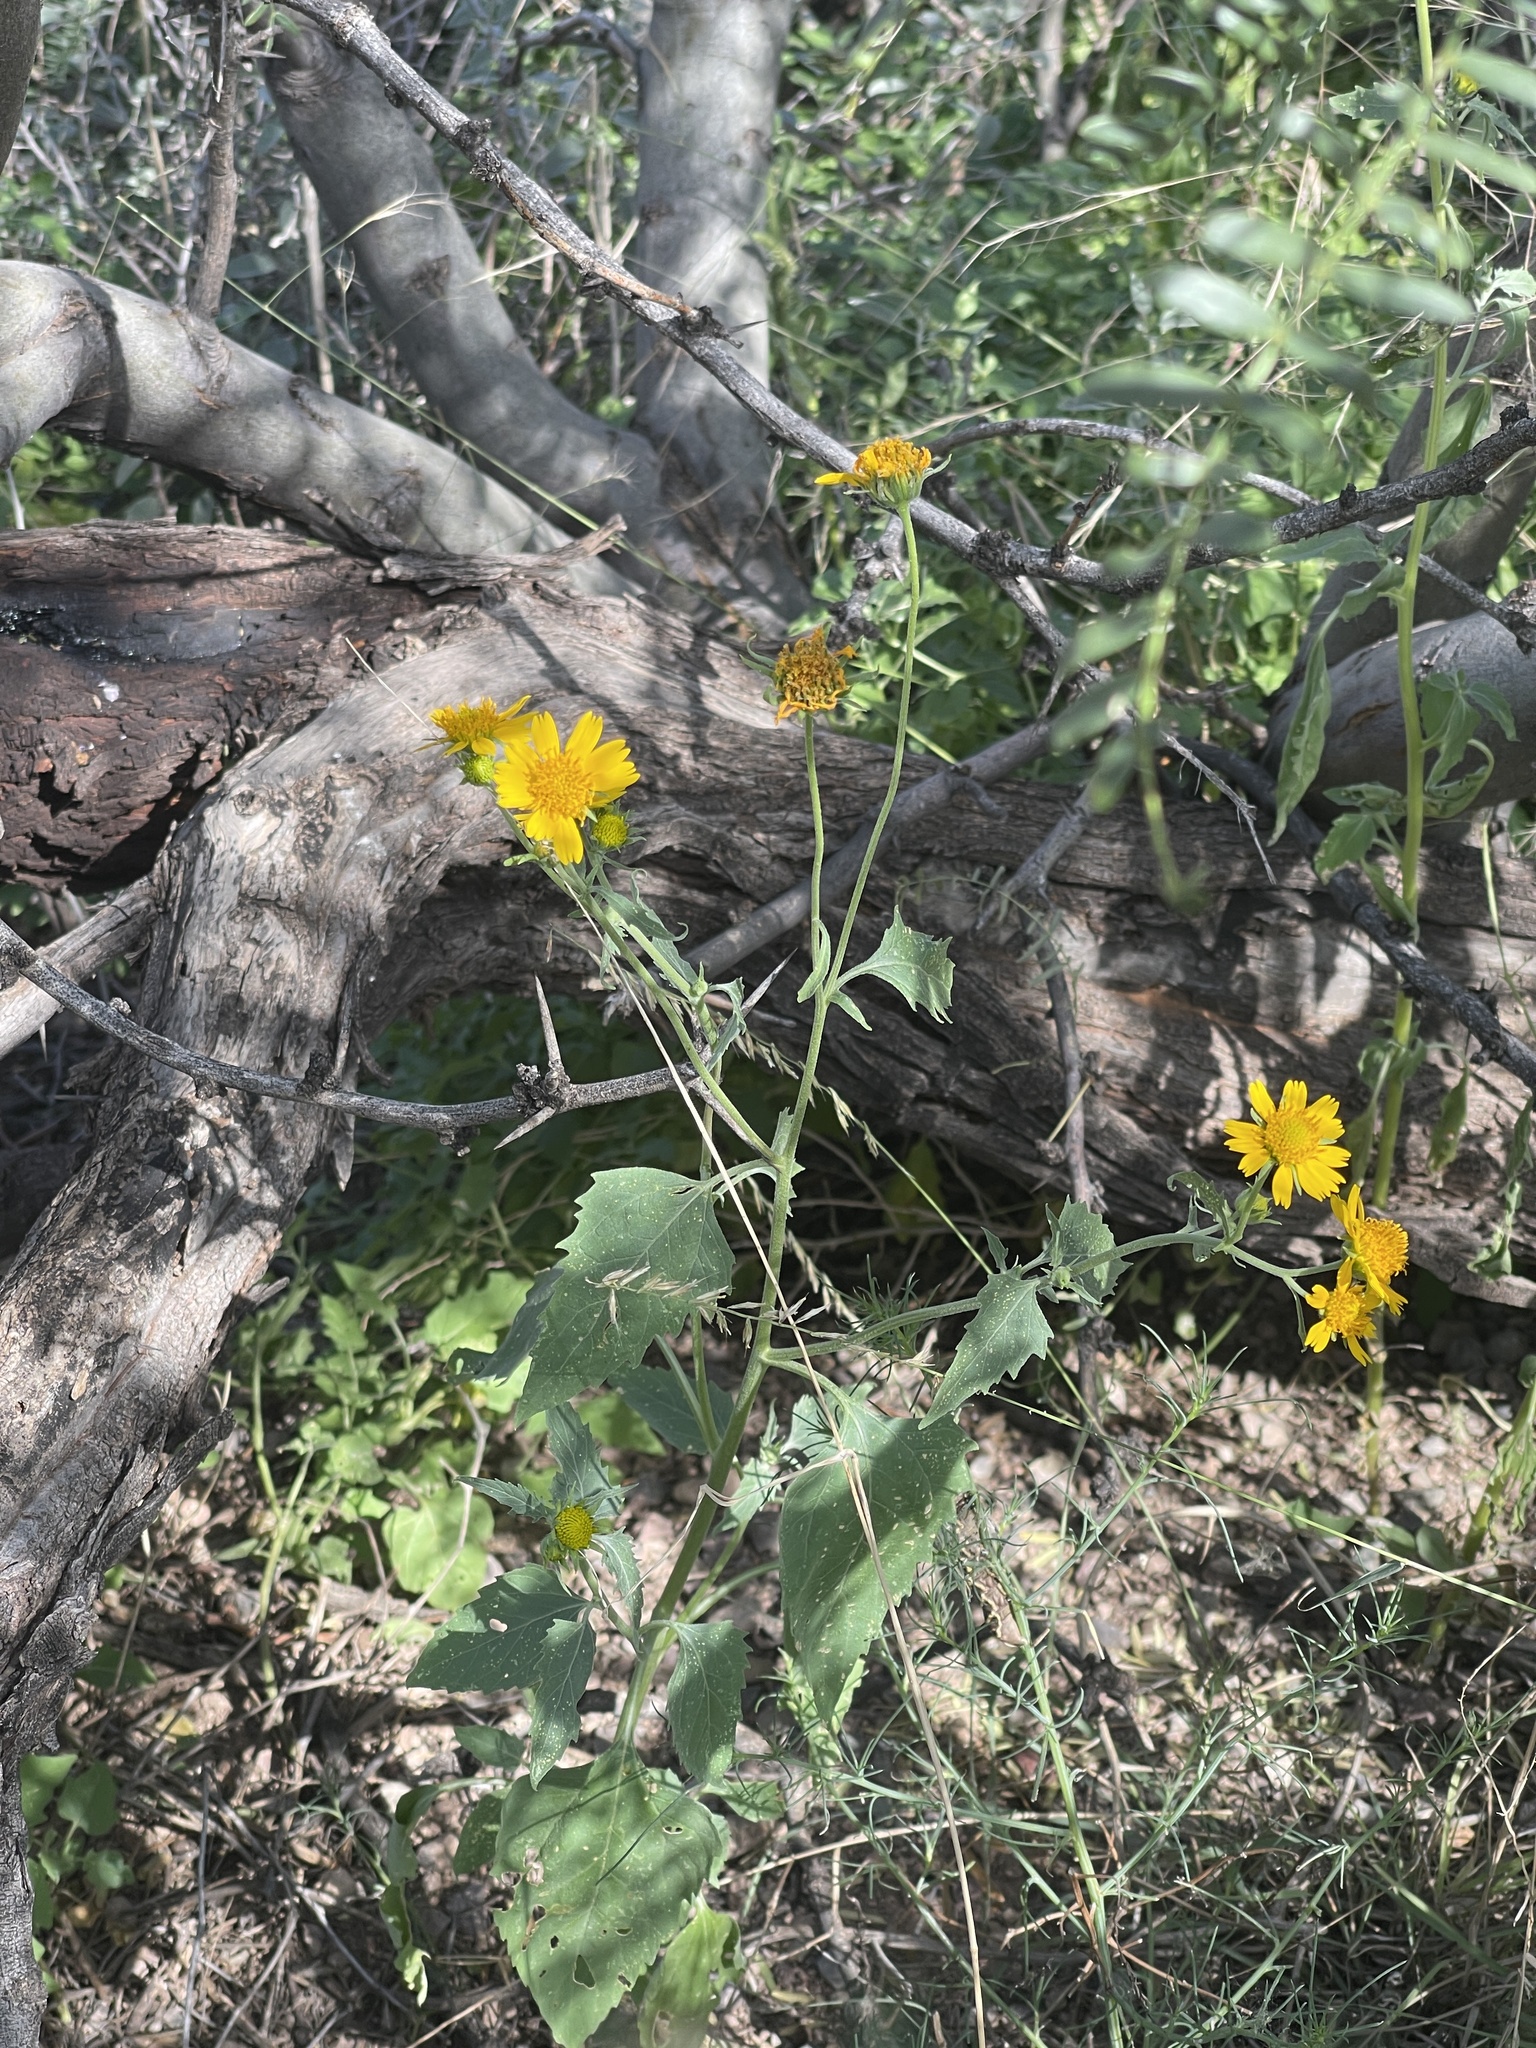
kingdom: Plantae
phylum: Tracheophyta
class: Magnoliopsida
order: Asterales
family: Asteraceae
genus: Verbesina
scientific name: Verbesina encelioides
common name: Golden crownbeard
